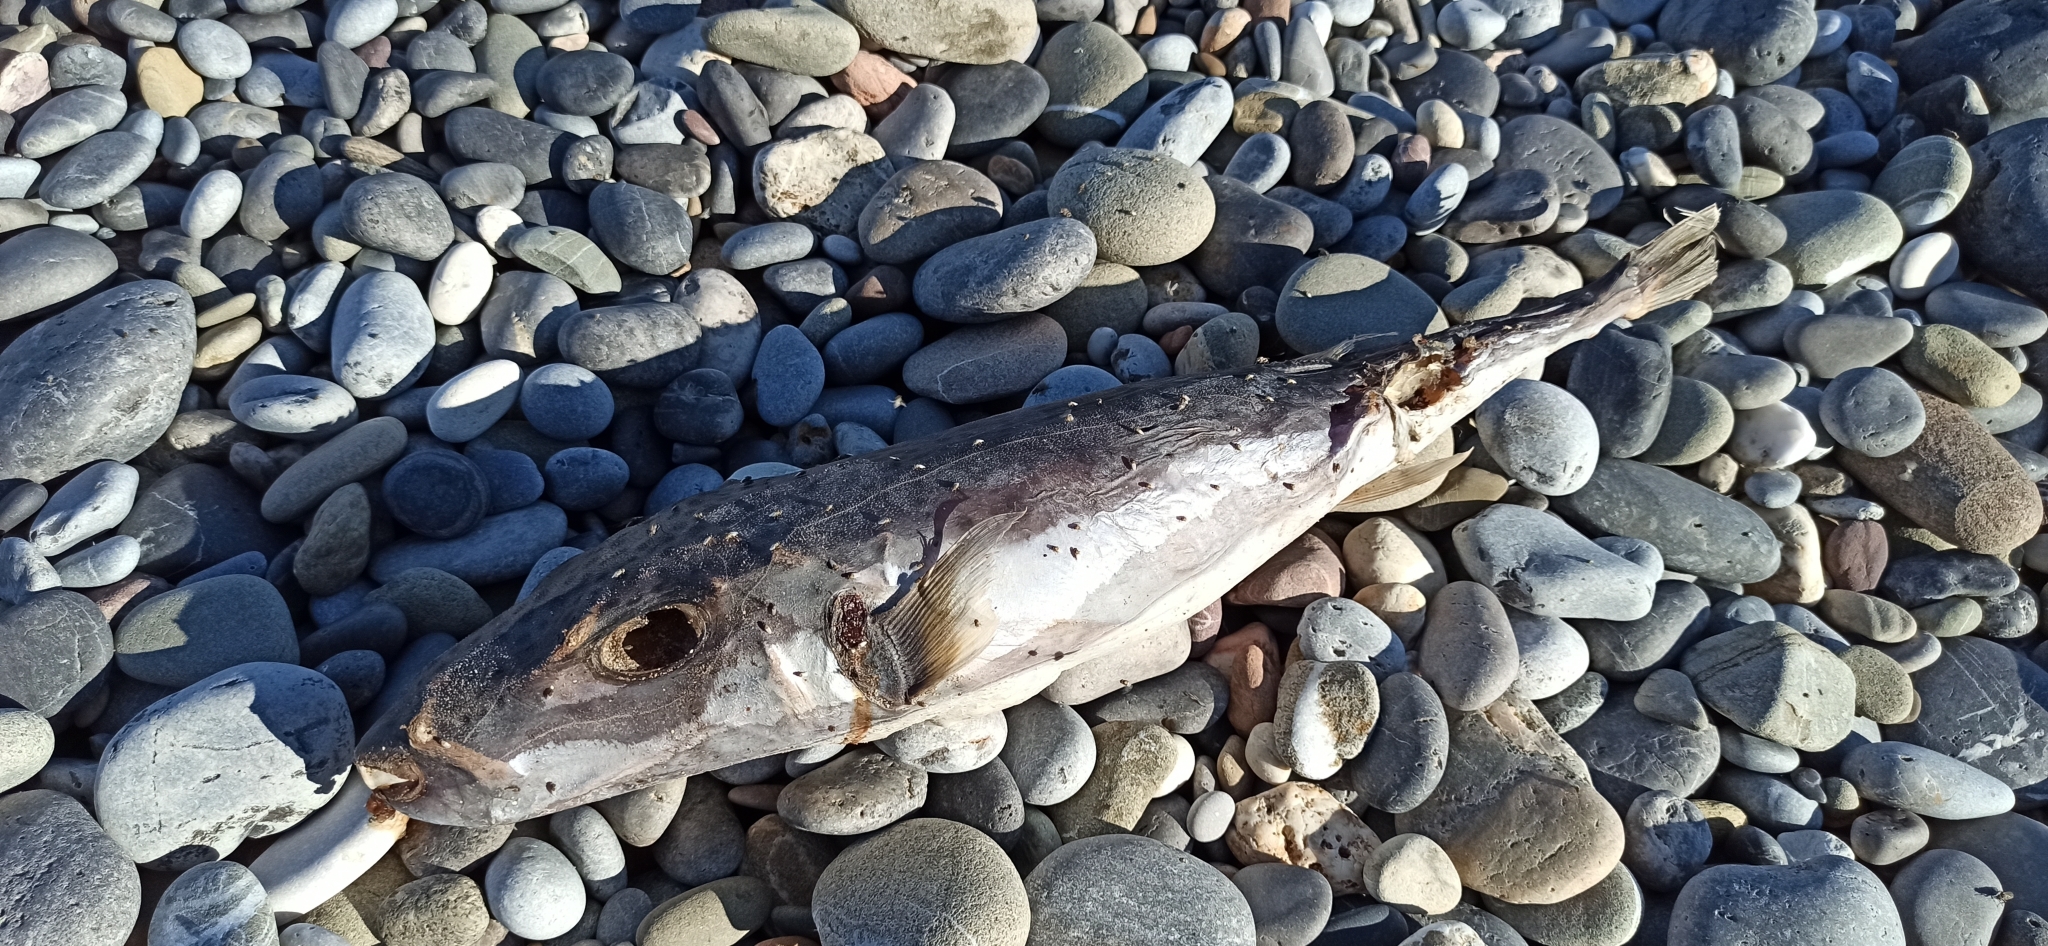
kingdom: Animalia
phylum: Chordata
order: Tetraodontiformes
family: Tetraodontidae
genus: Lagocephalus
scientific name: Lagocephalus sceleratus
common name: Silverstripe blaasop
